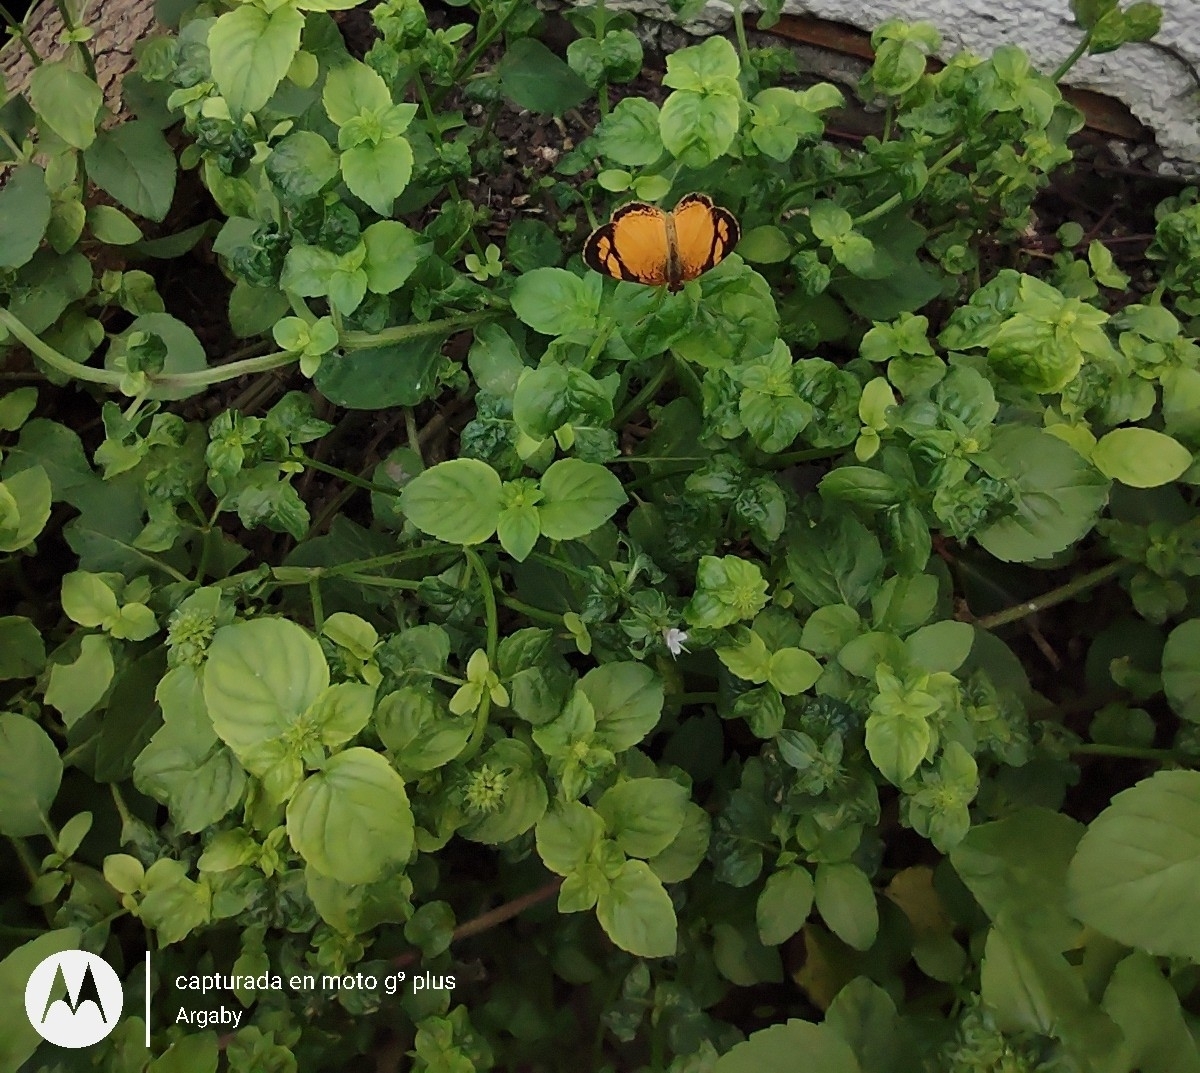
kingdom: Animalia
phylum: Arthropoda
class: Insecta
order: Lepidoptera
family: Nymphalidae
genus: Tegosa
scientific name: Tegosa claudina
